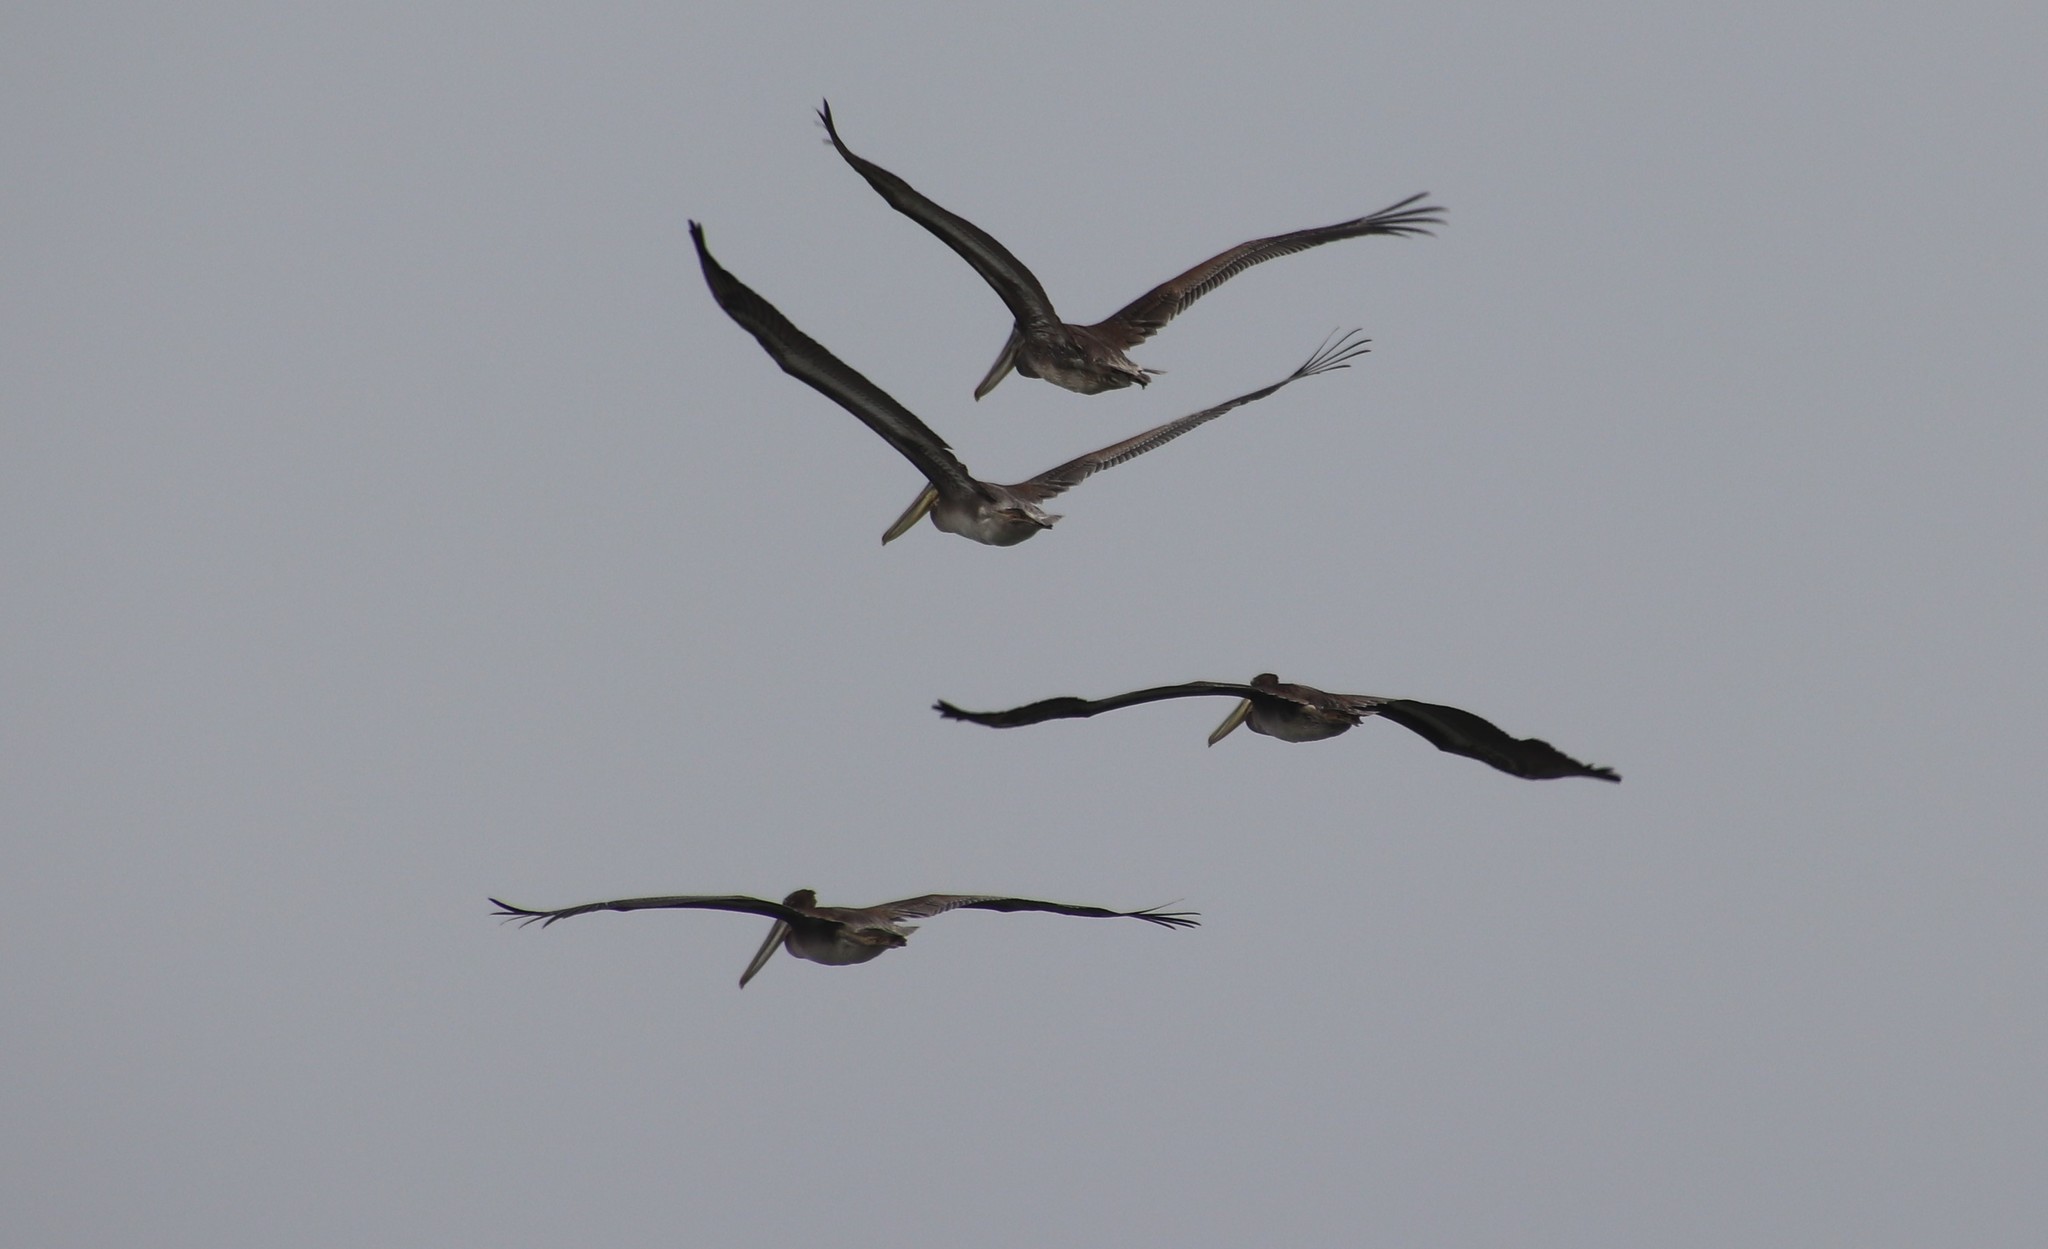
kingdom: Animalia
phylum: Chordata
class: Aves
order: Pelecaniformes
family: Pelecanidae
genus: Pelecanus
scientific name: Pelecanus occidentalis
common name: Brown pelican
